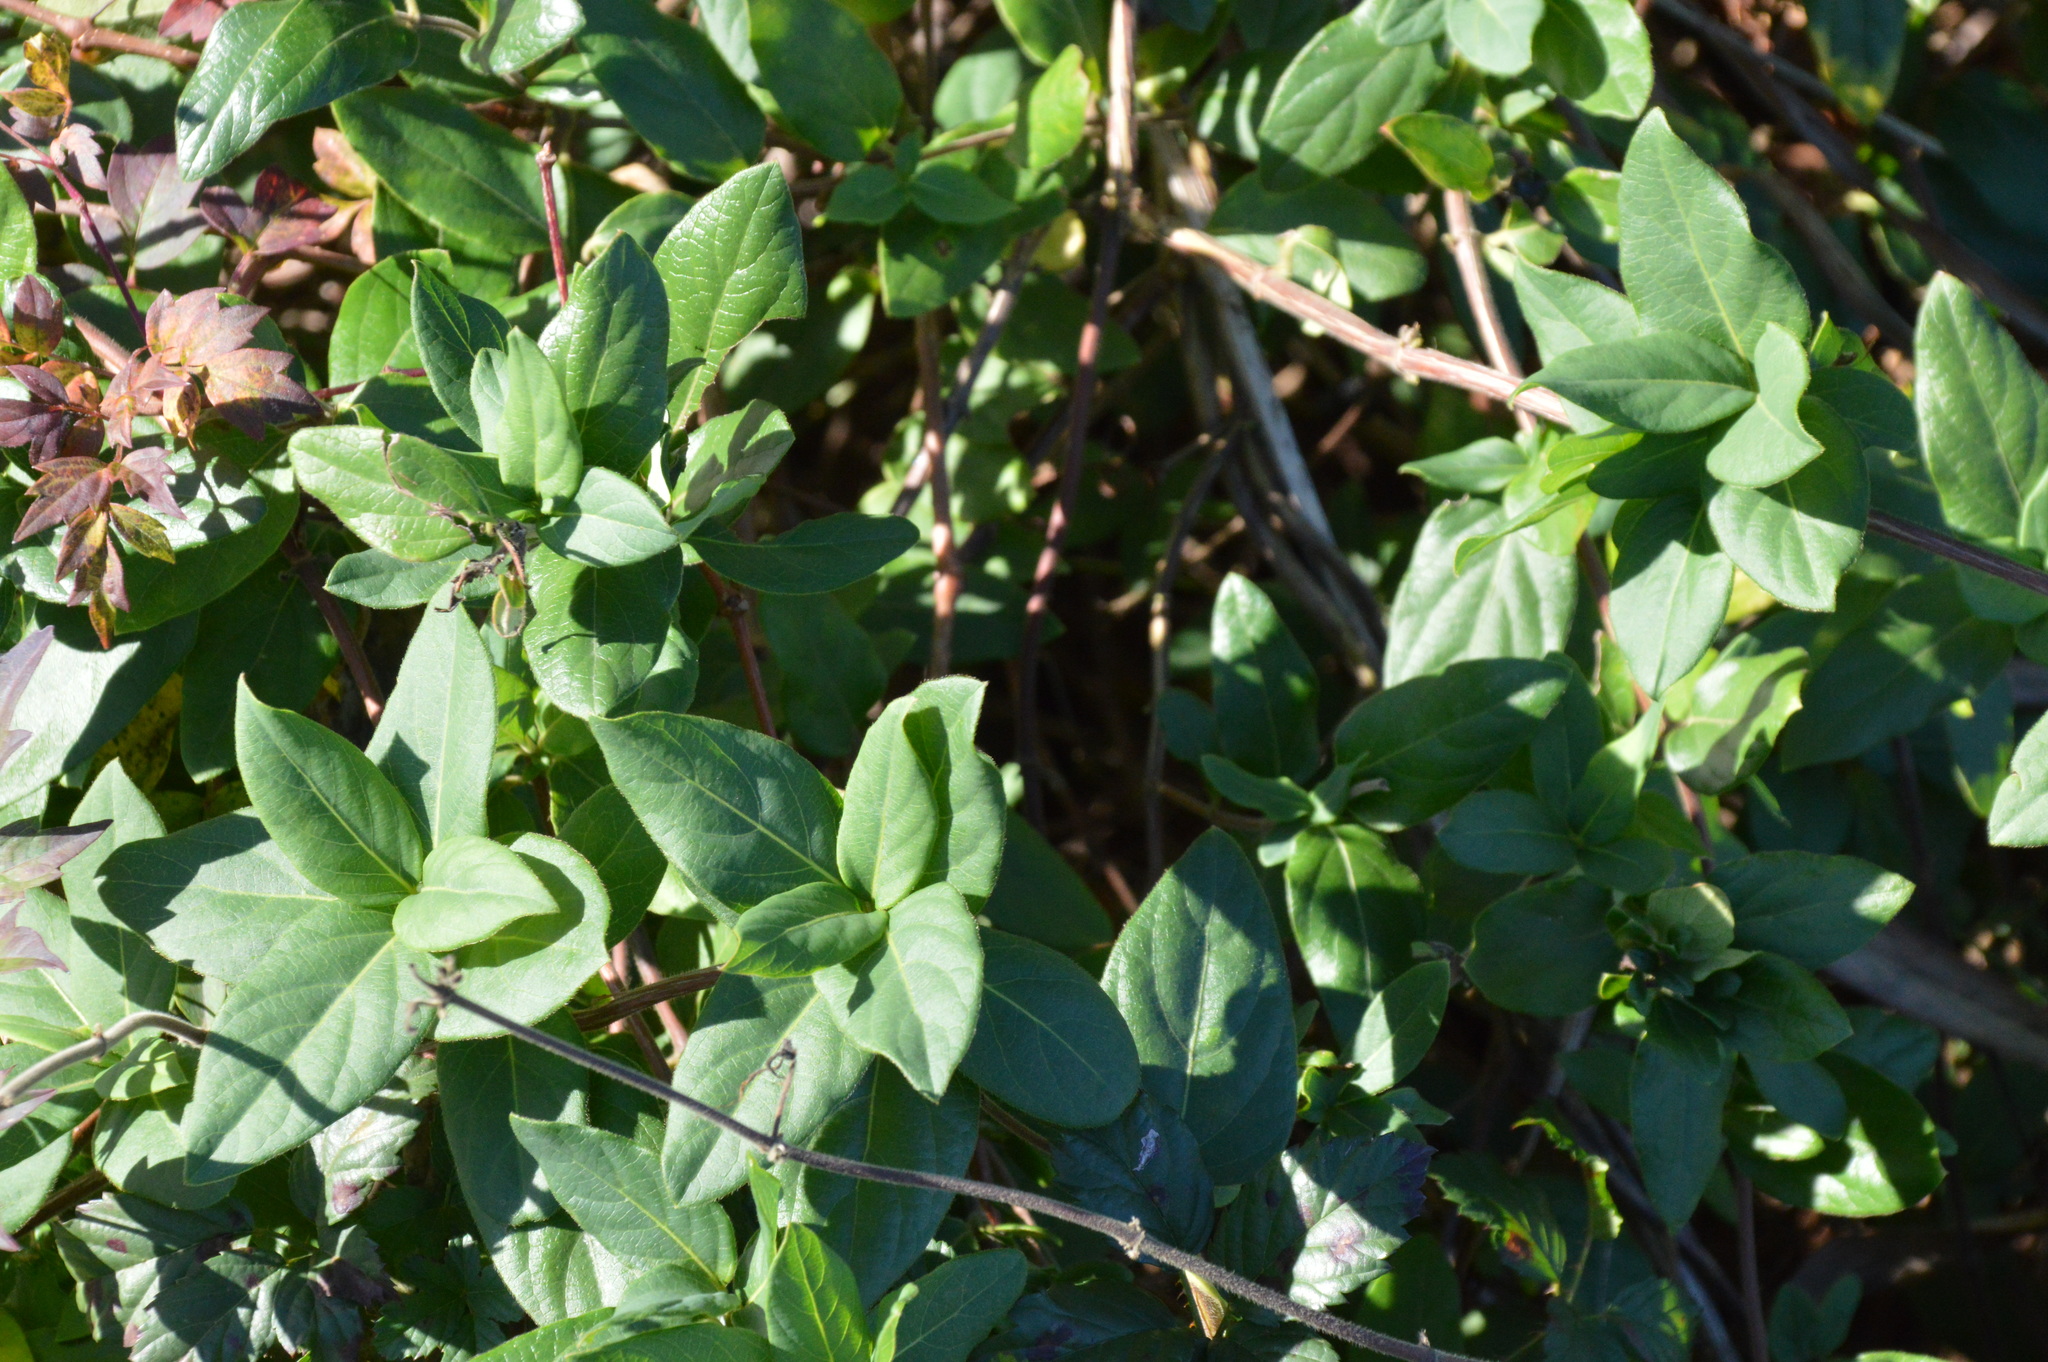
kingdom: Plantae
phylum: Tracheophyta
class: Magnoliopsida
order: Dipsacales
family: Caprifoliaceae
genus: Lonicera
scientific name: Lonicera japonica
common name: Japanese honeysuckle
